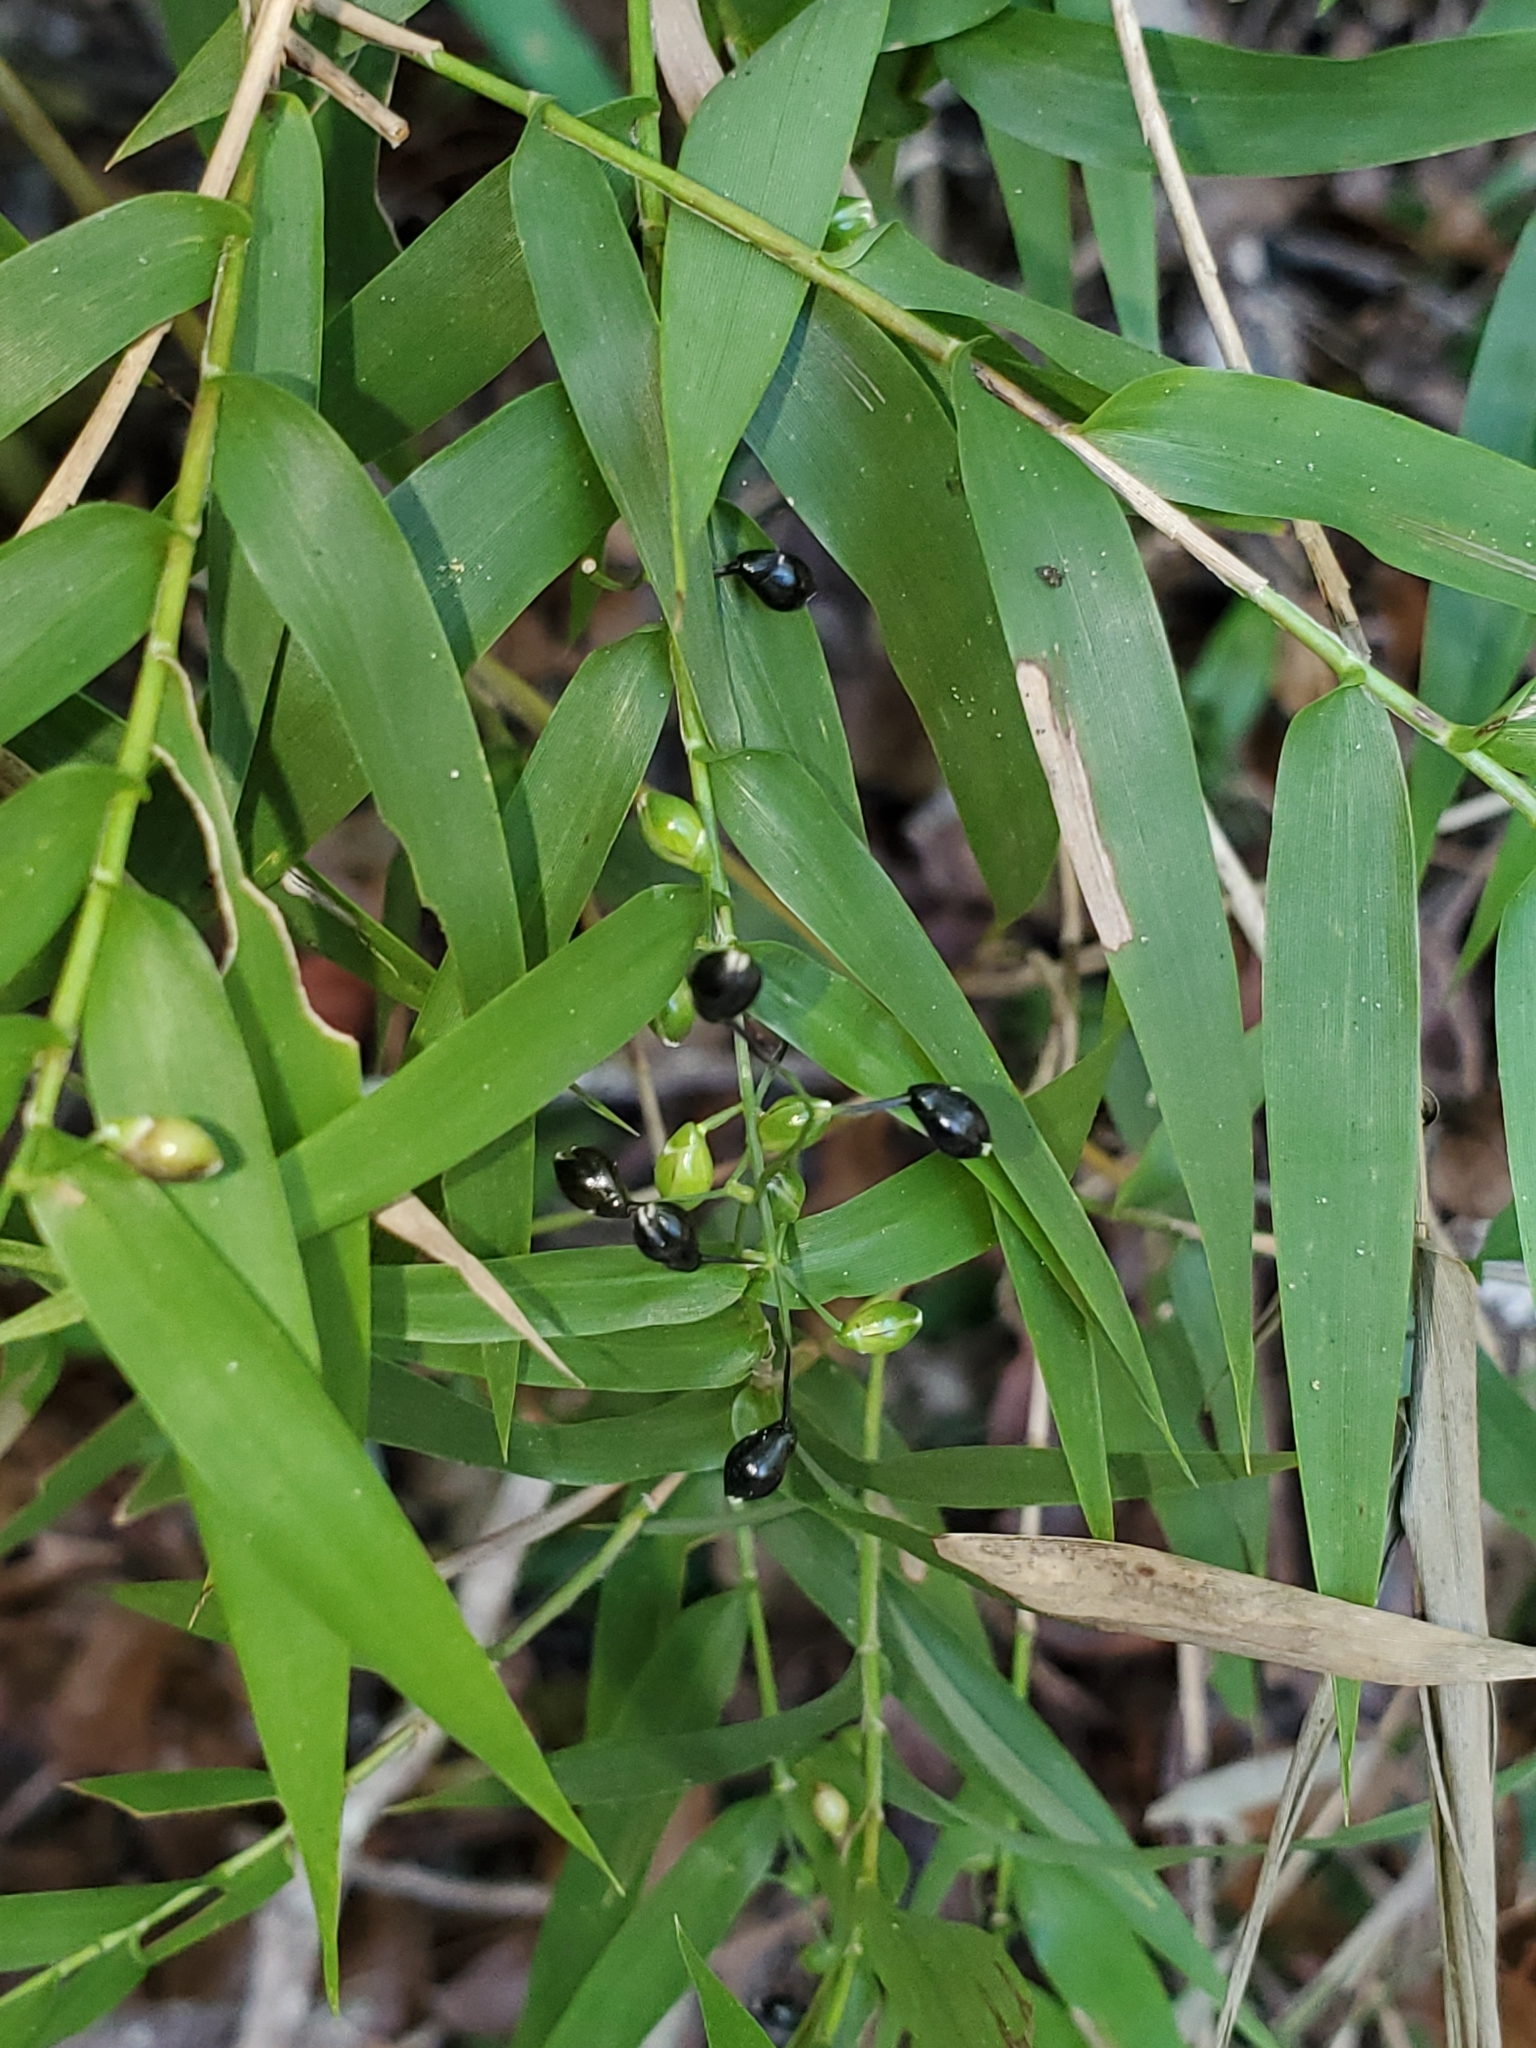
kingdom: Plantae
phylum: Tracheophyta
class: Liliopsida
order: Poales
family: Poaceae
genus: Lasiacis
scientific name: Lasiacis divaricata
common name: Smallcane
